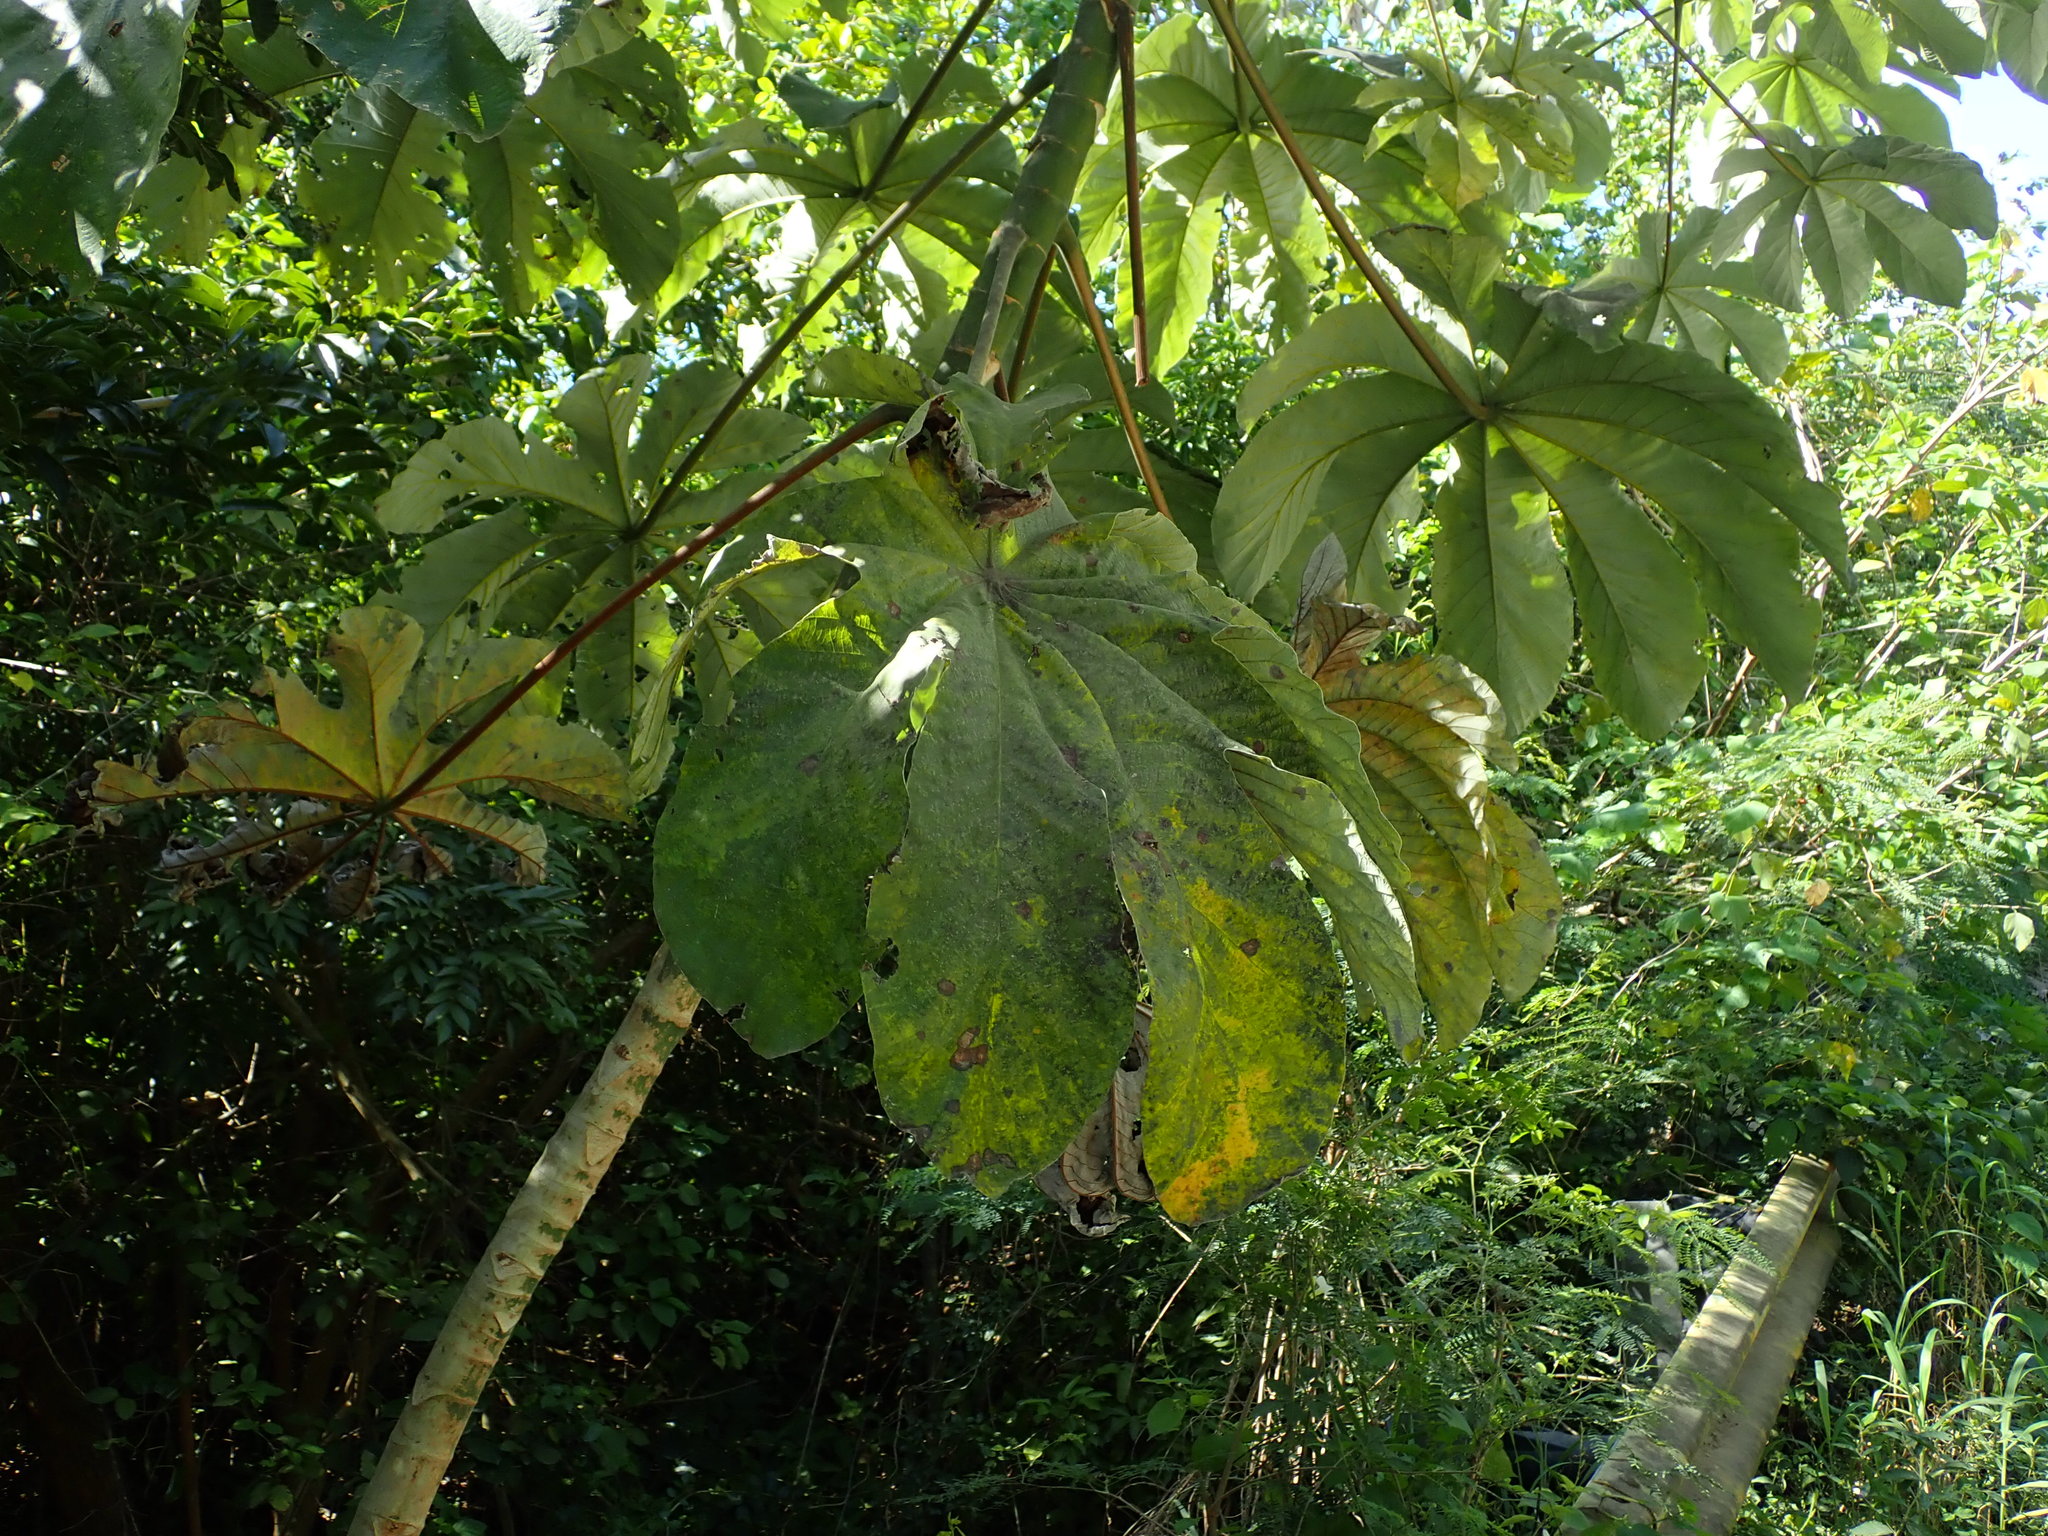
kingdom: Plantae
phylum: Tracheophyta
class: Magnoliopsida
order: Rosales
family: Urticaceae
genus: Cecropia
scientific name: Cecropia schreberiana
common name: Trumpet tree
